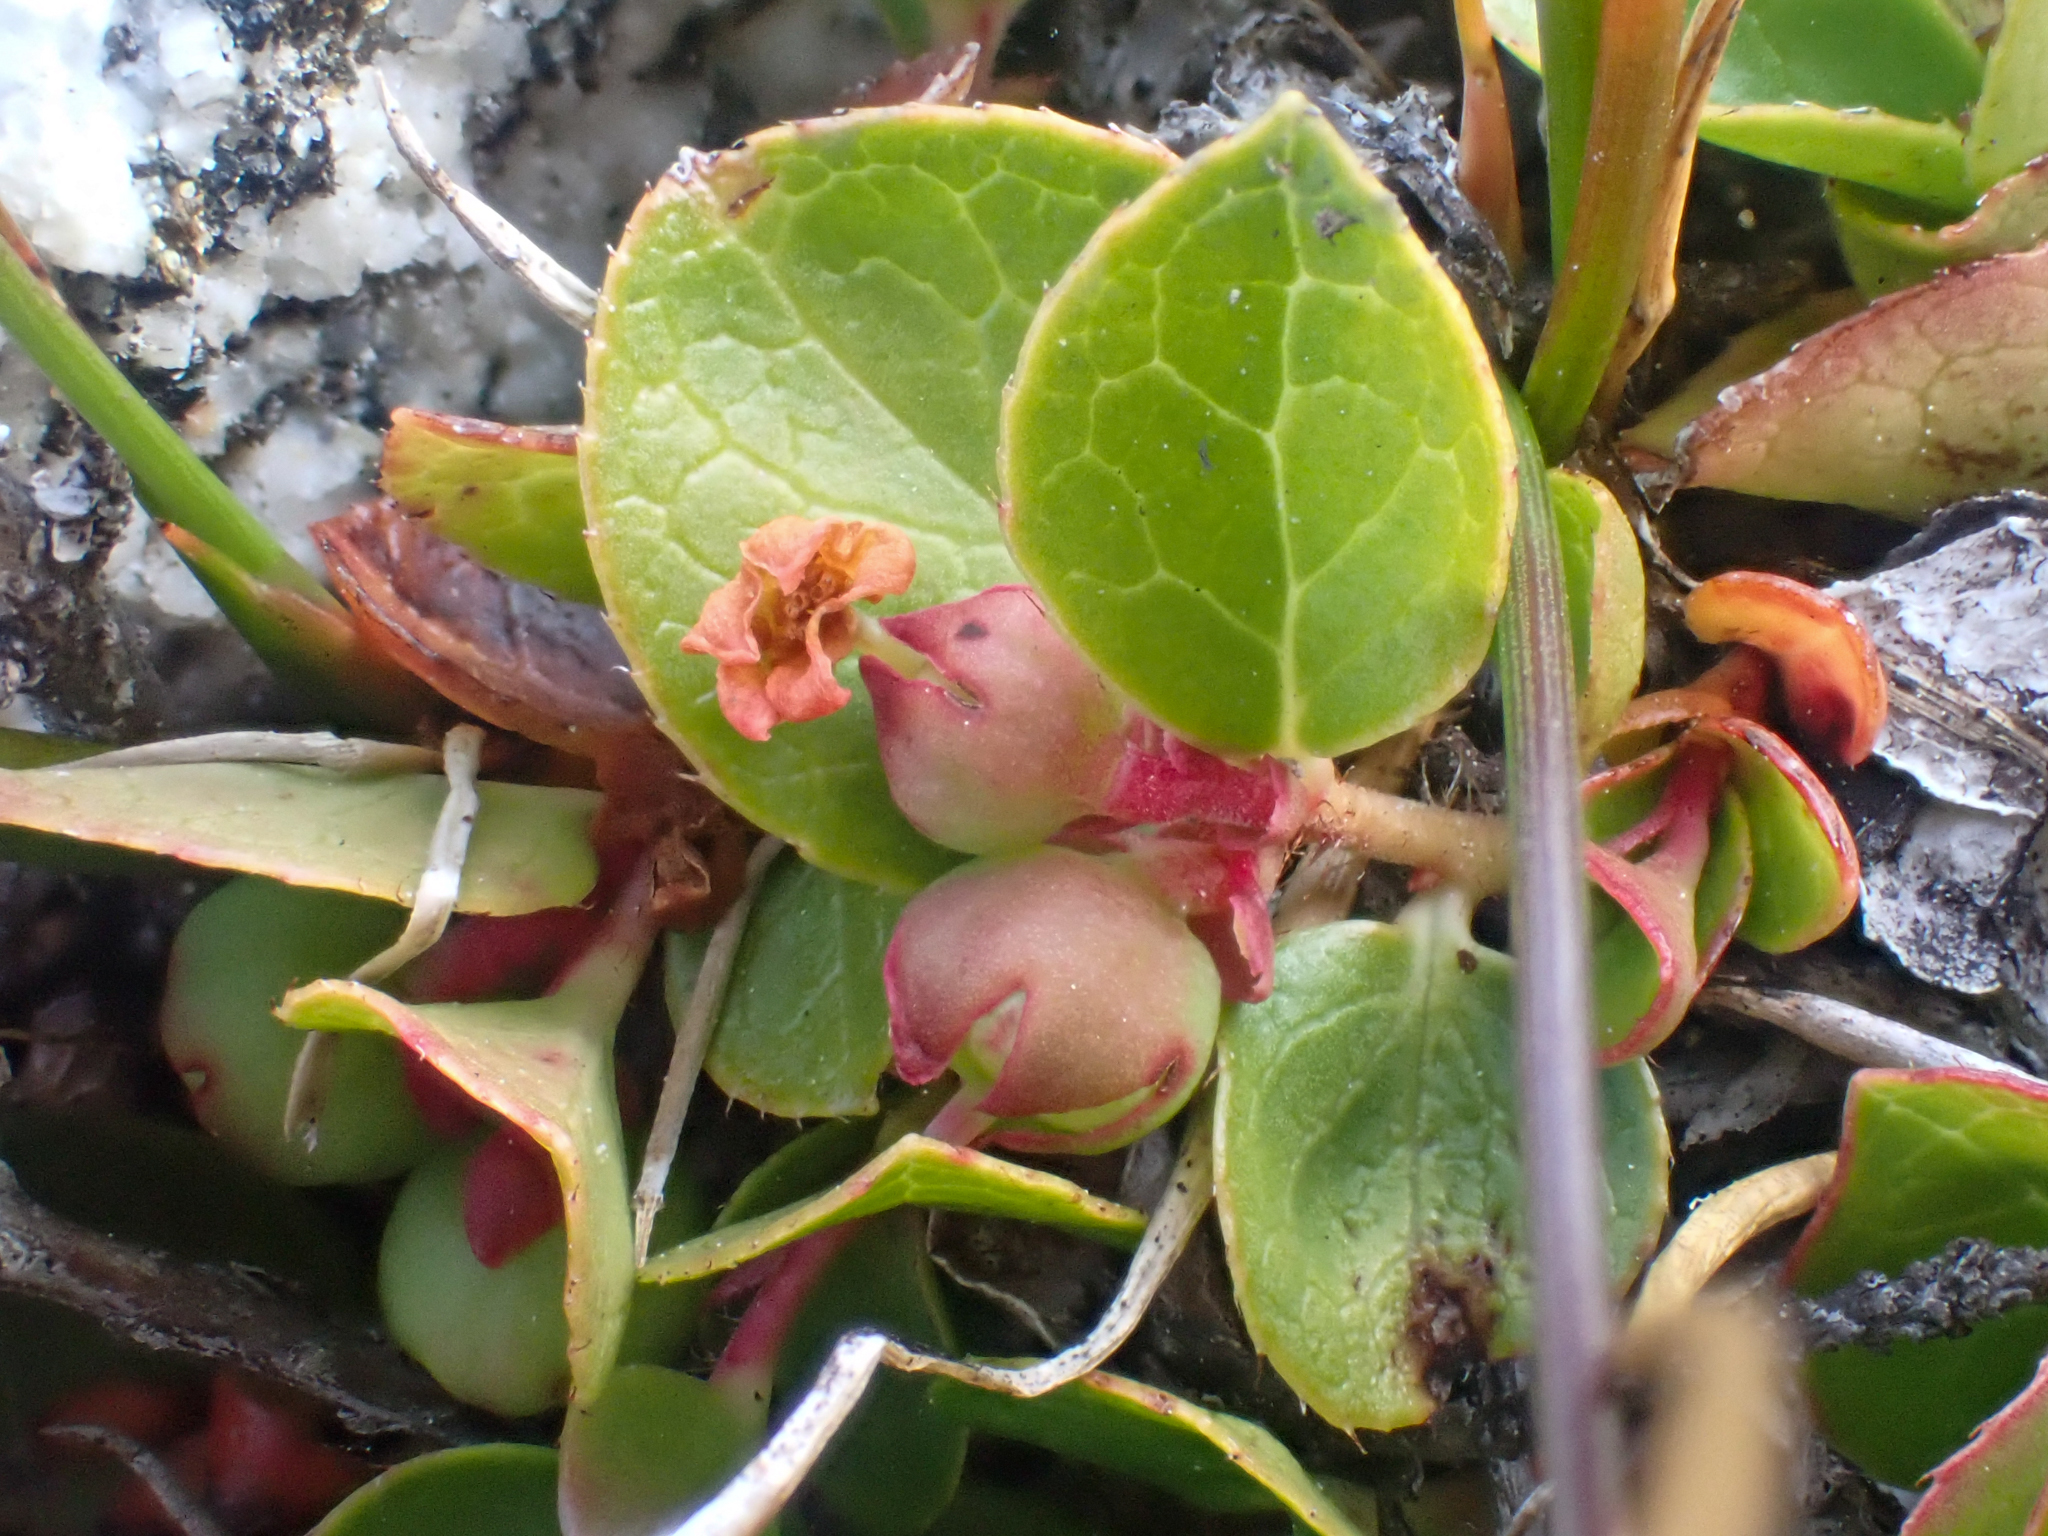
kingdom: Plantae
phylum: Tracheophyta
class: Magnoliopsida
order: Ericales
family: Ericaceae
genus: Gaultheria
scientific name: Gaultheria humifusa
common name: Alpine wintergreen
